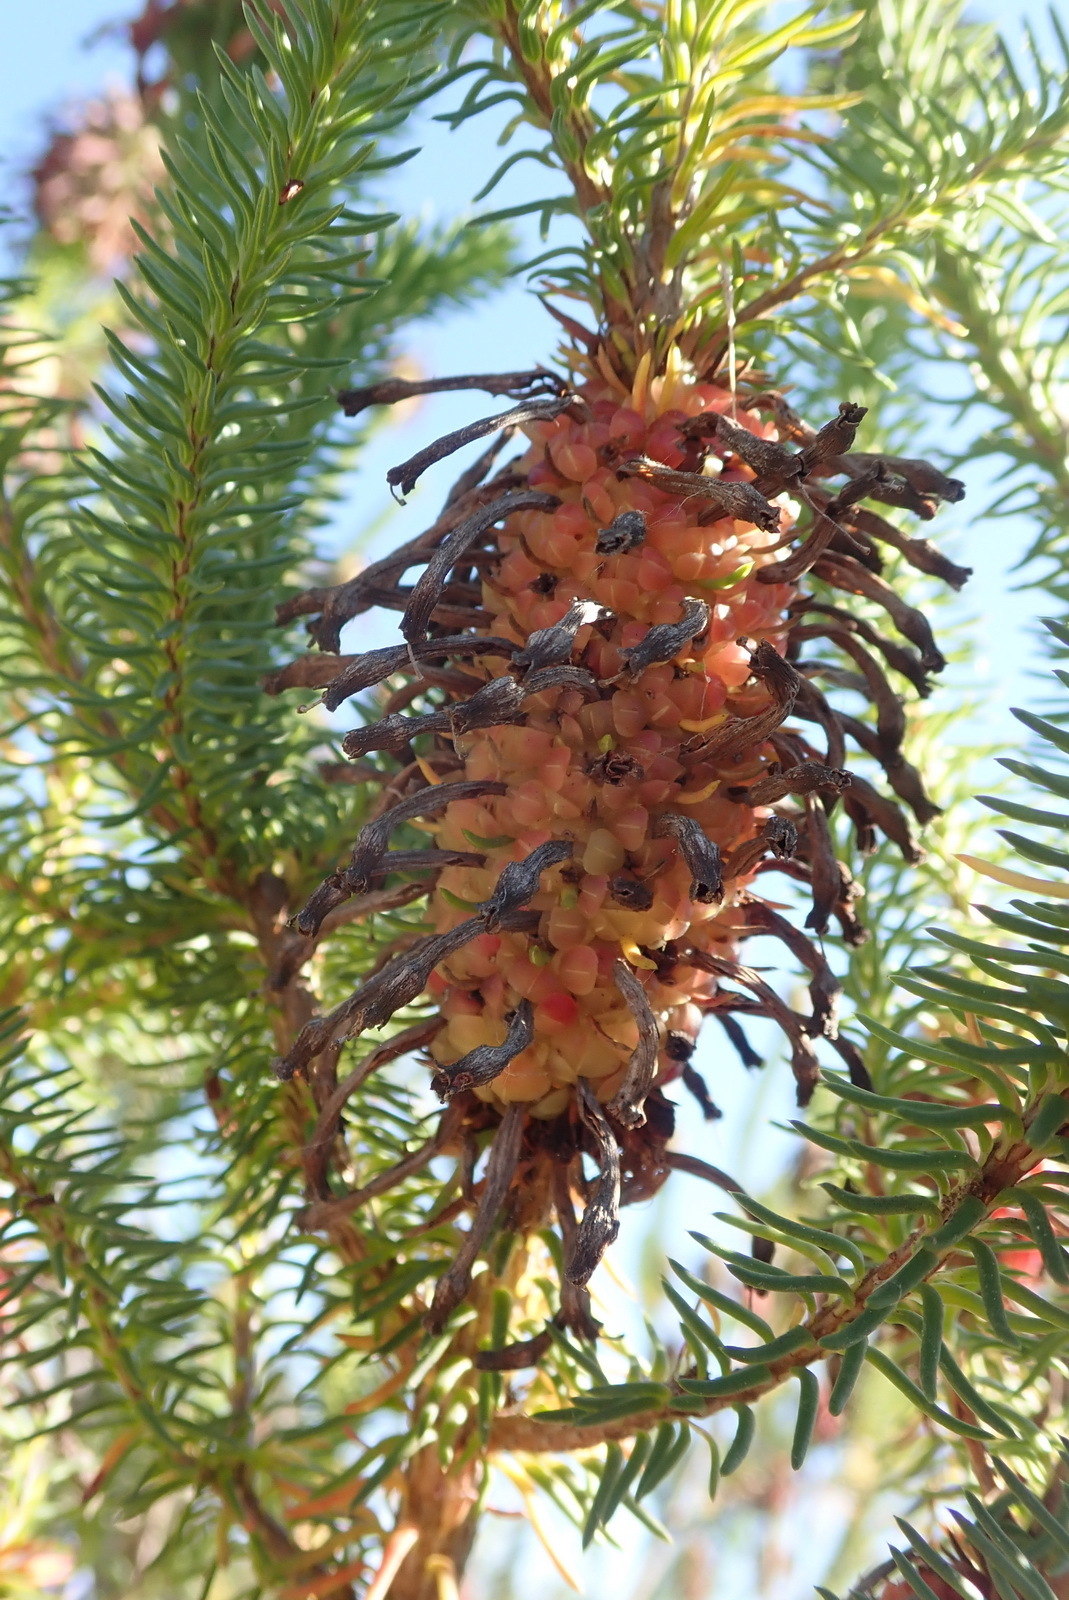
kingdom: Plantae
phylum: Tracheophyta
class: Magnoliopsida
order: Ericales
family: Ericaceae
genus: Erica
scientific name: Erica sessiliflora
